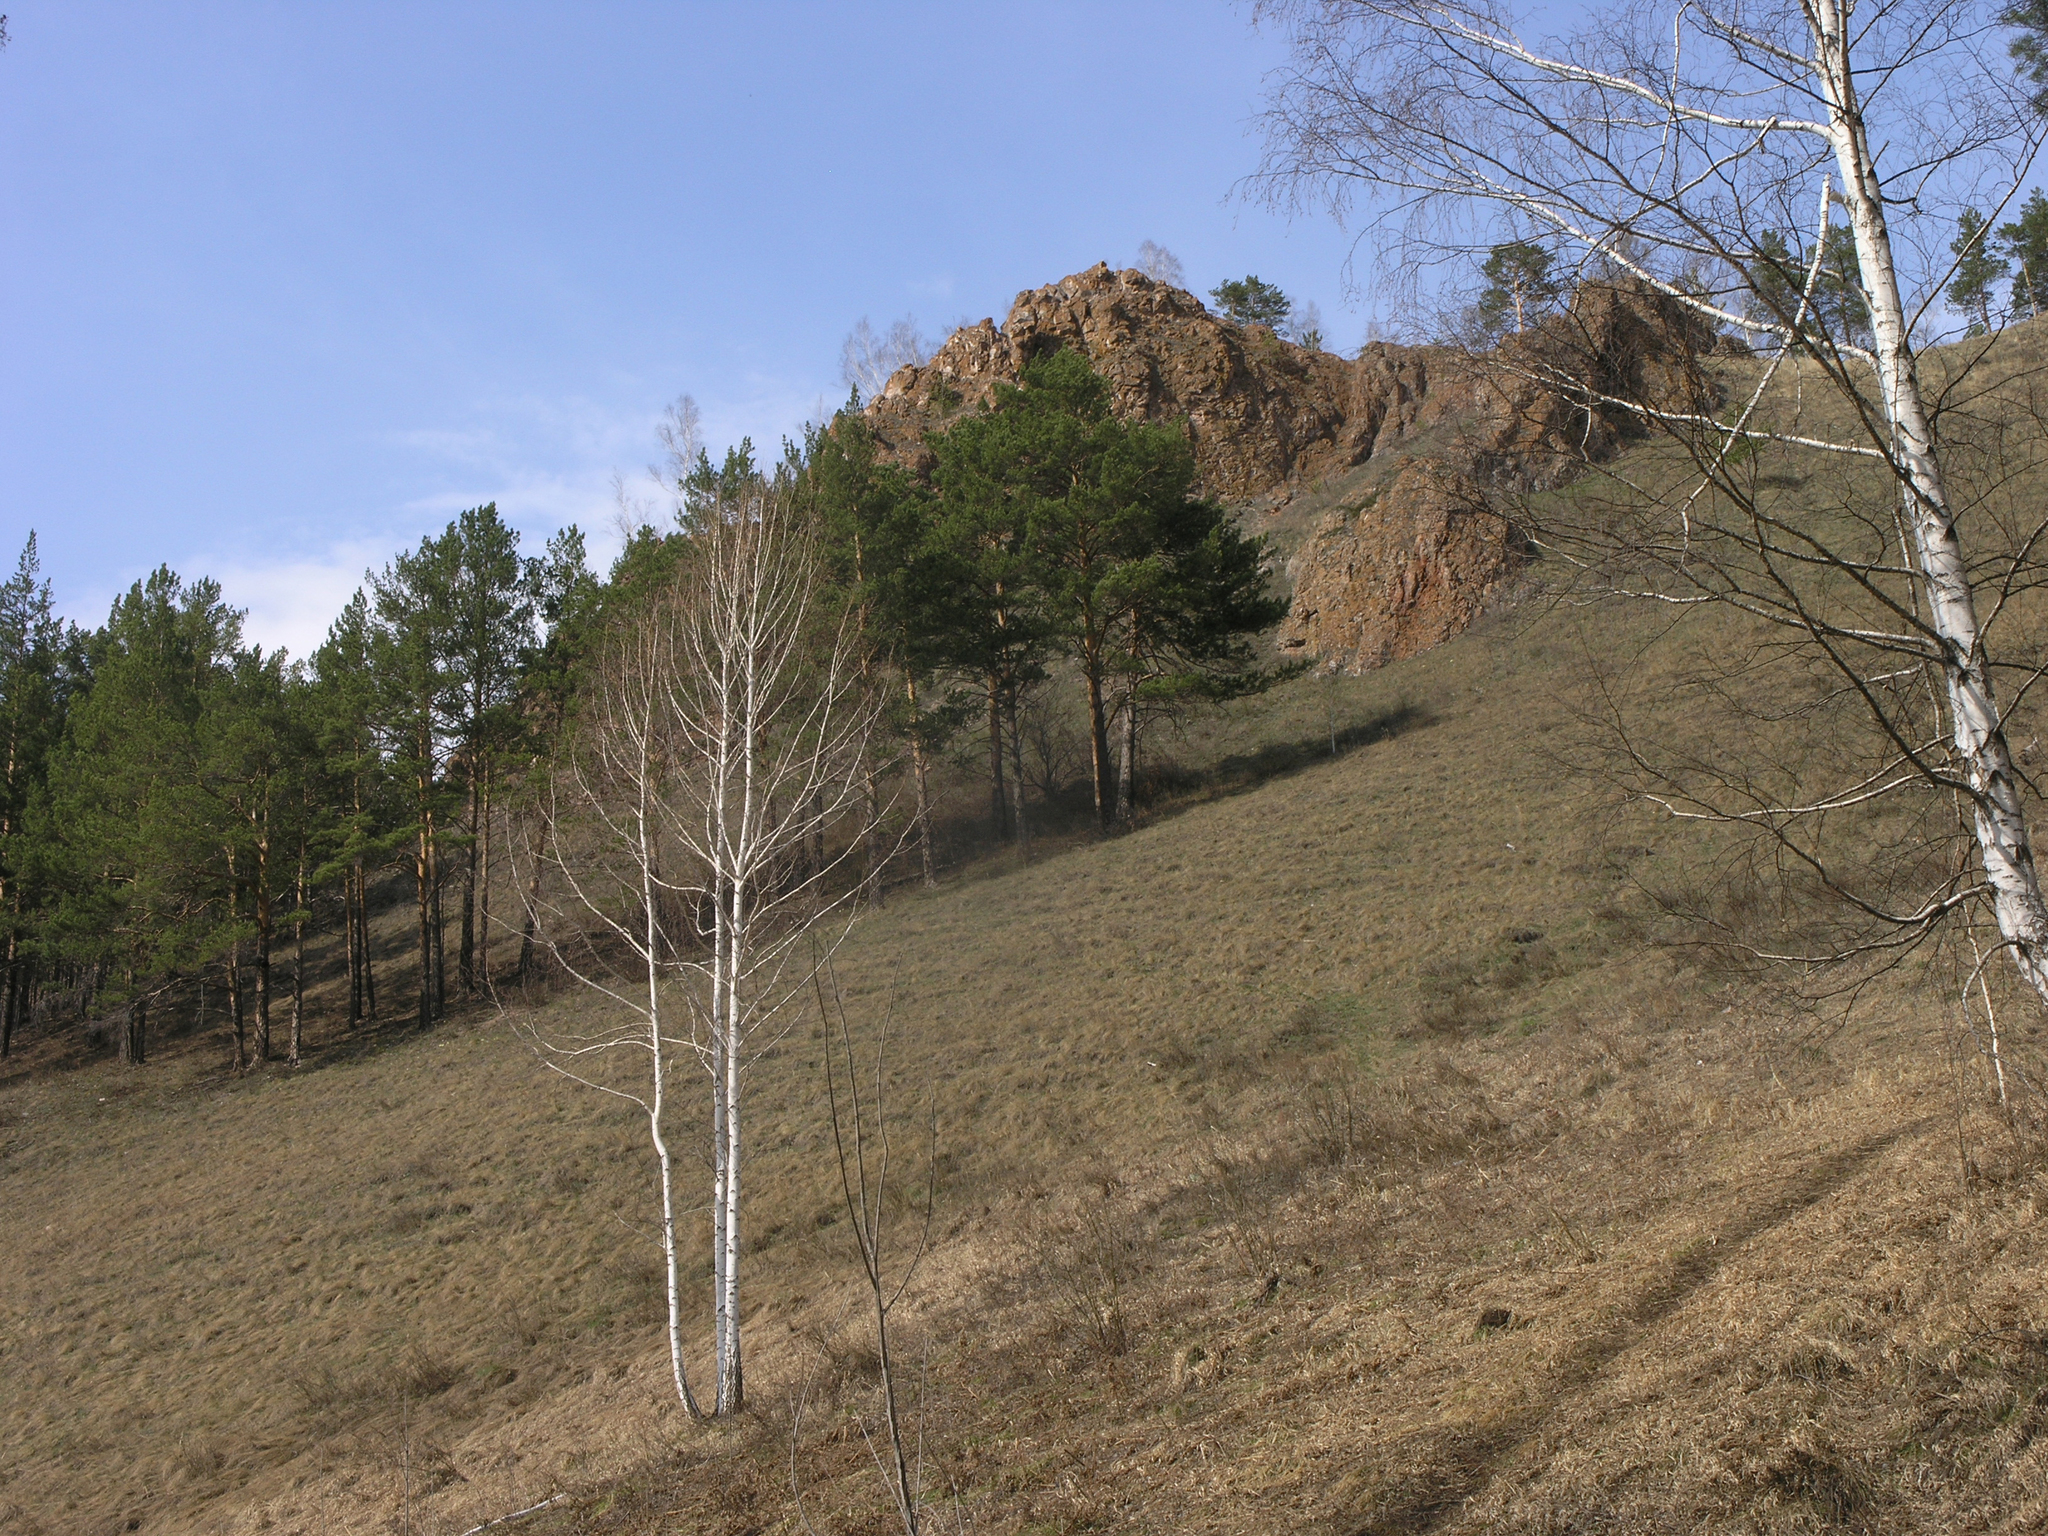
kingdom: Plantae
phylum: Tracheophyta
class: Magnoliopsida
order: Fagales
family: Betulaceae
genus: Betula
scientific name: Betula pendula
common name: Silver birch
